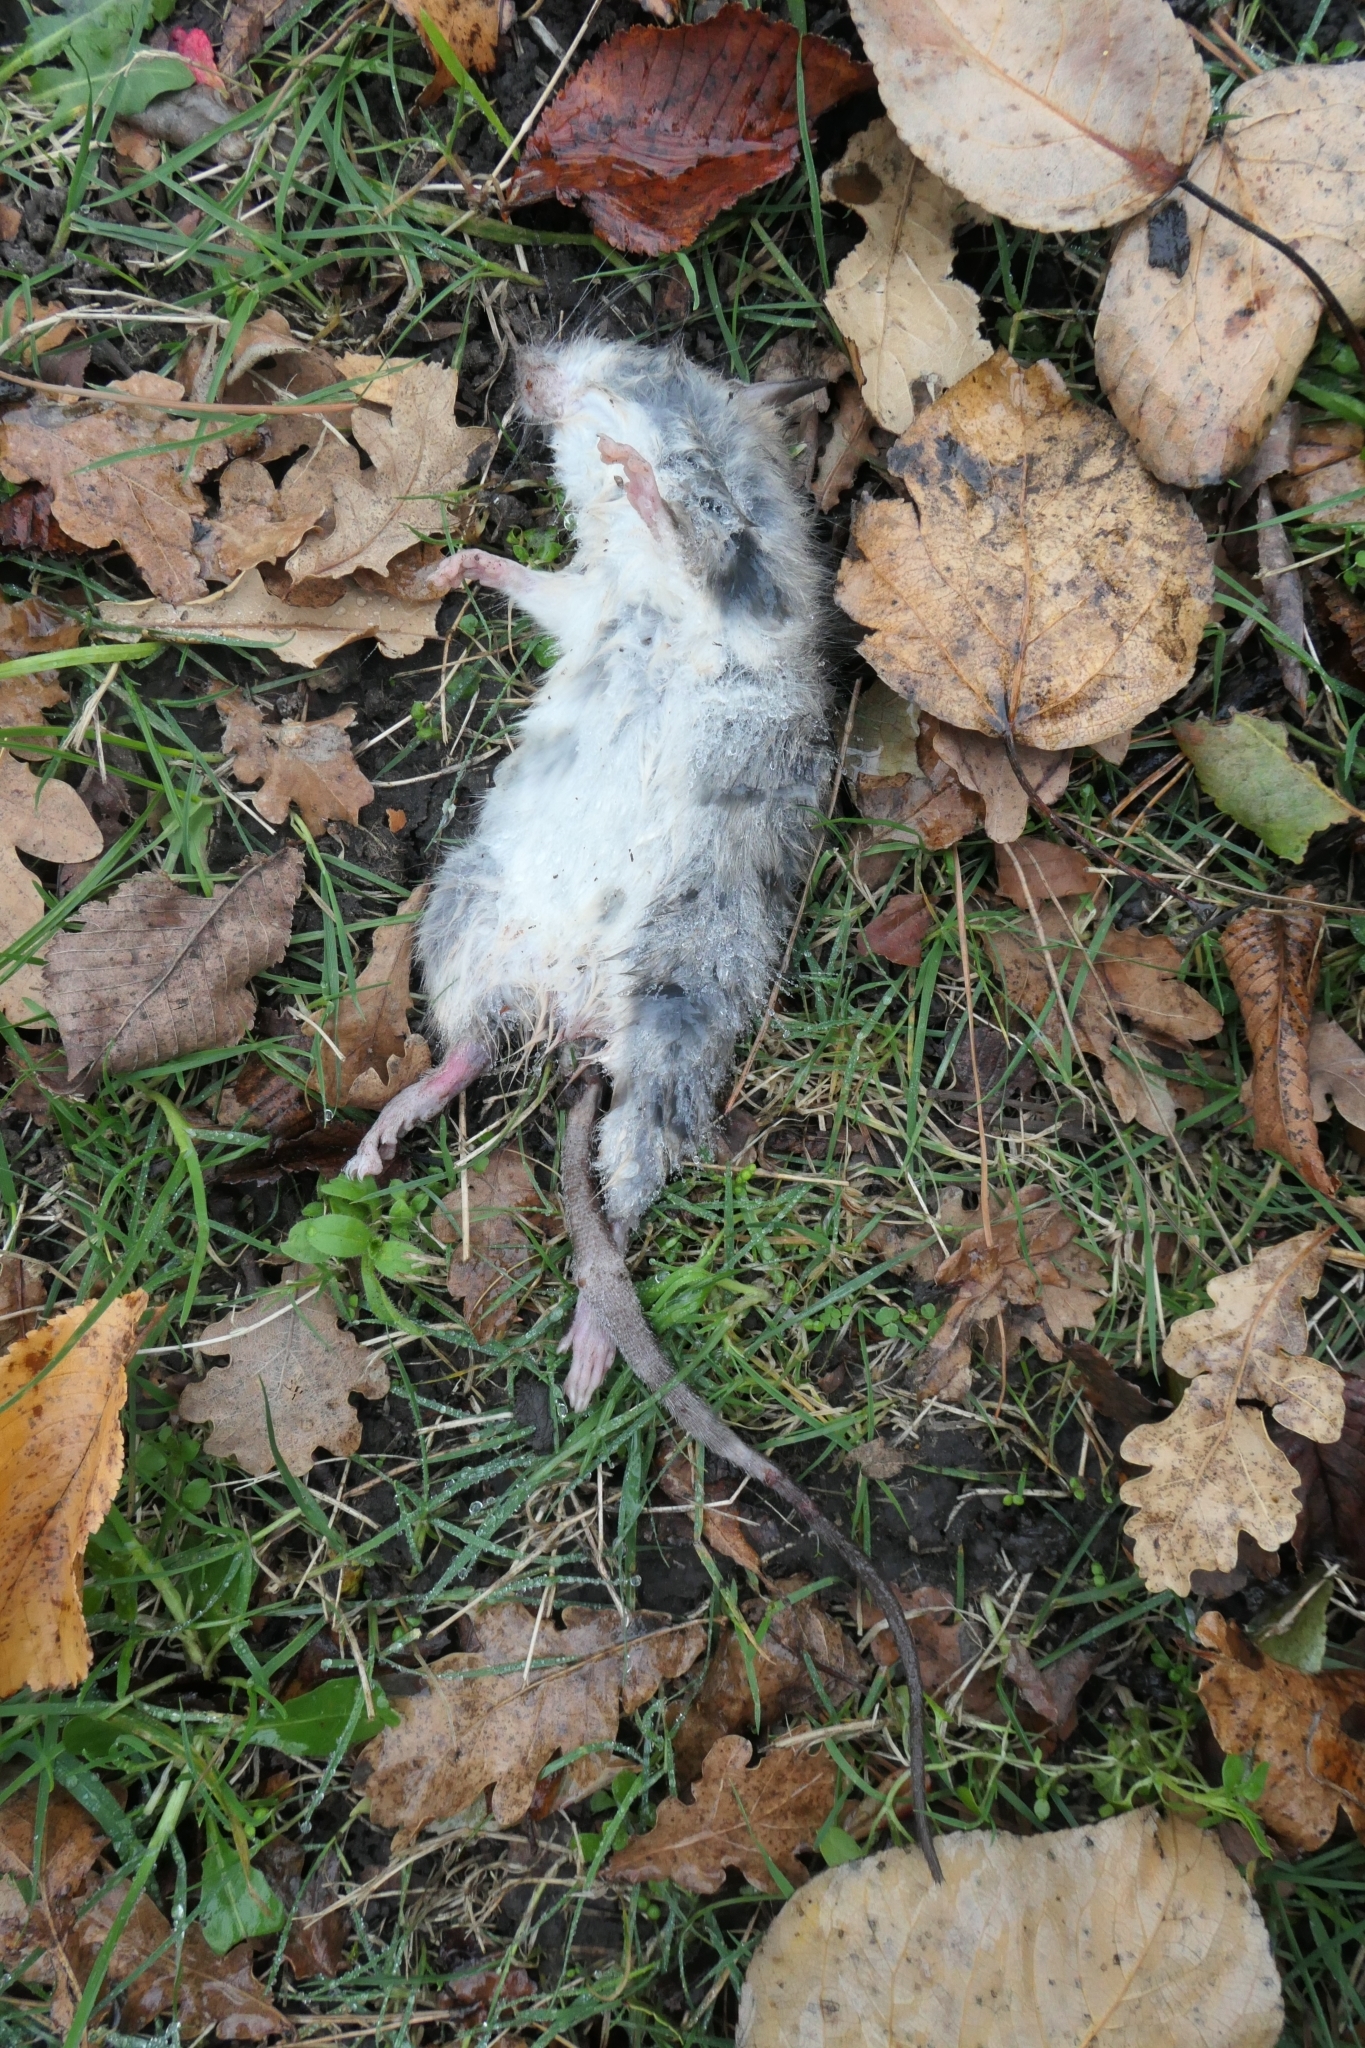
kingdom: Animalia
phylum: Chordata
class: Mammalia
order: Rodentia
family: Muridae
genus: Rattus
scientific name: Rattus rattus
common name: Black rat
